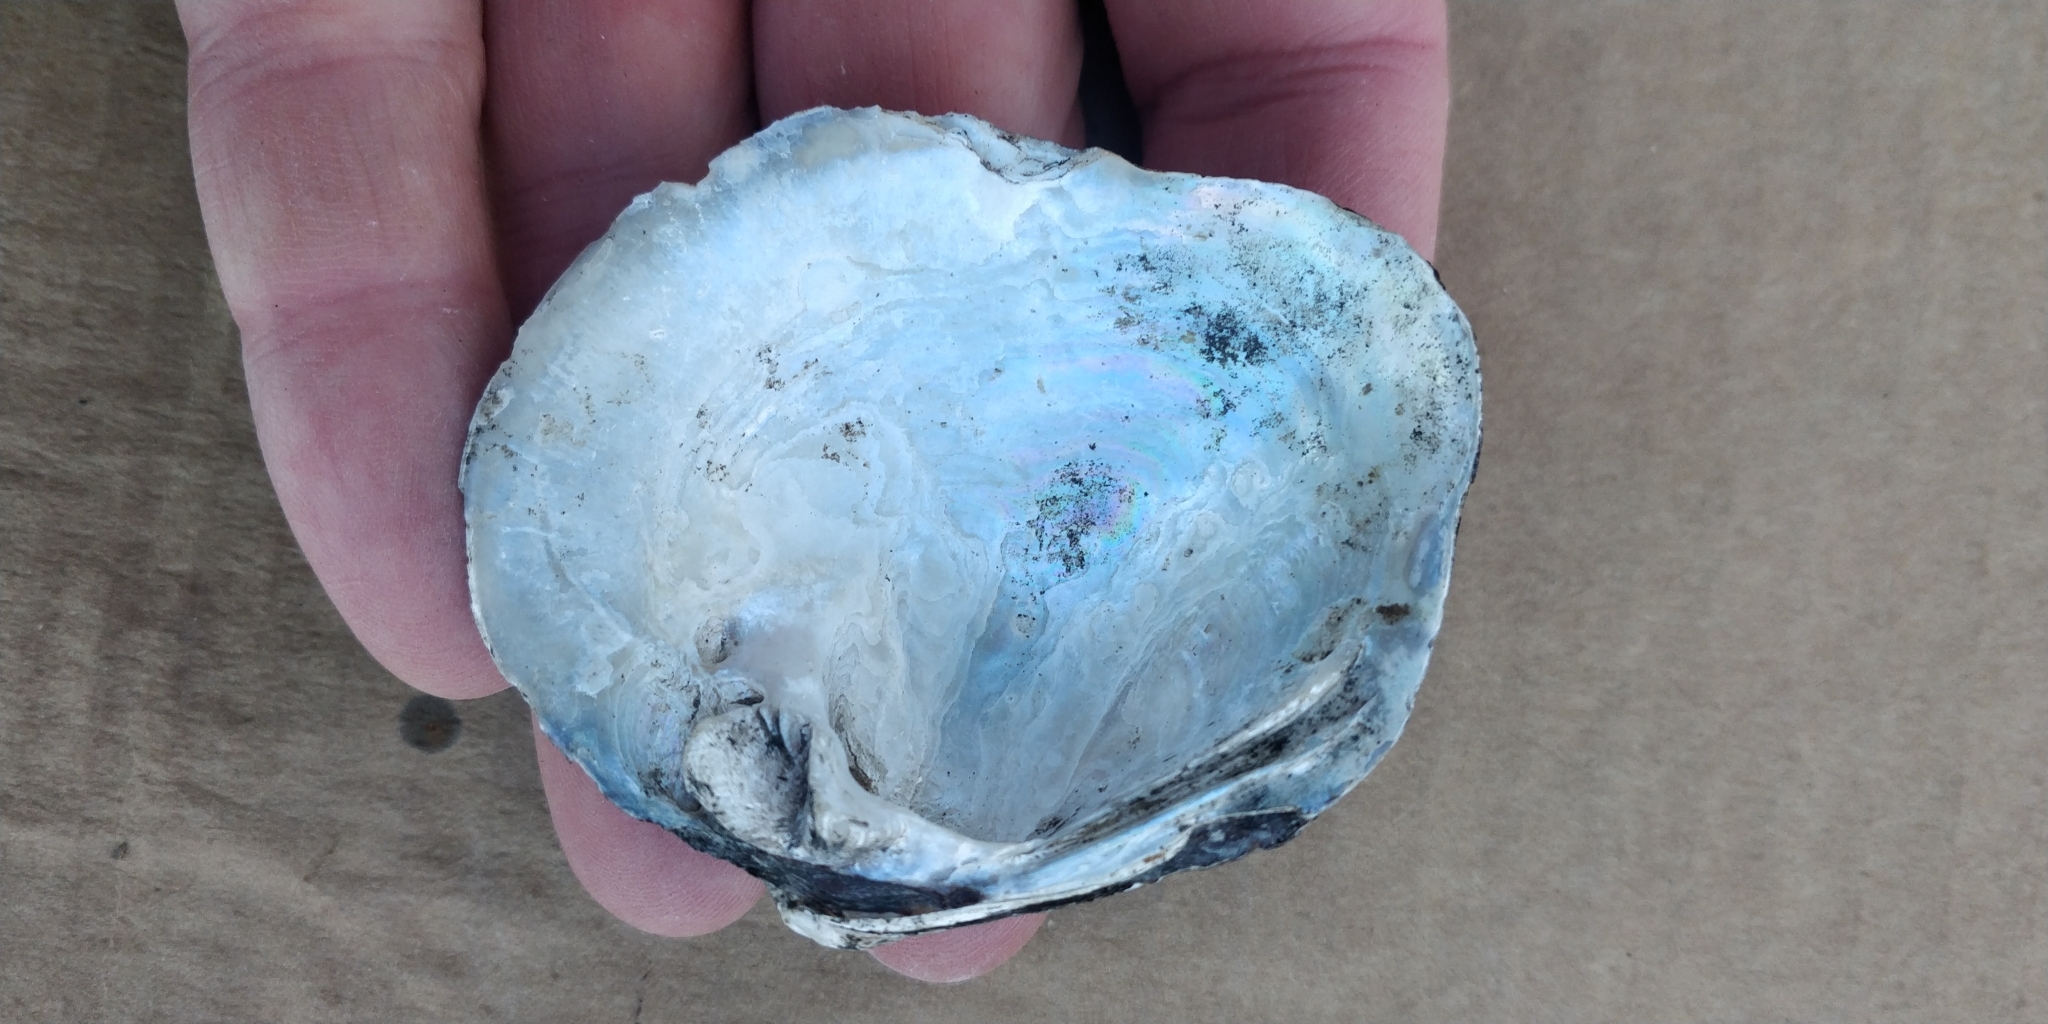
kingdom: Animalia
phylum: Mollusca
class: Bivalvia
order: Unionida
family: Unionidae
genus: Quadrula
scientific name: Quadrula quadrula
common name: Mapleleaf
